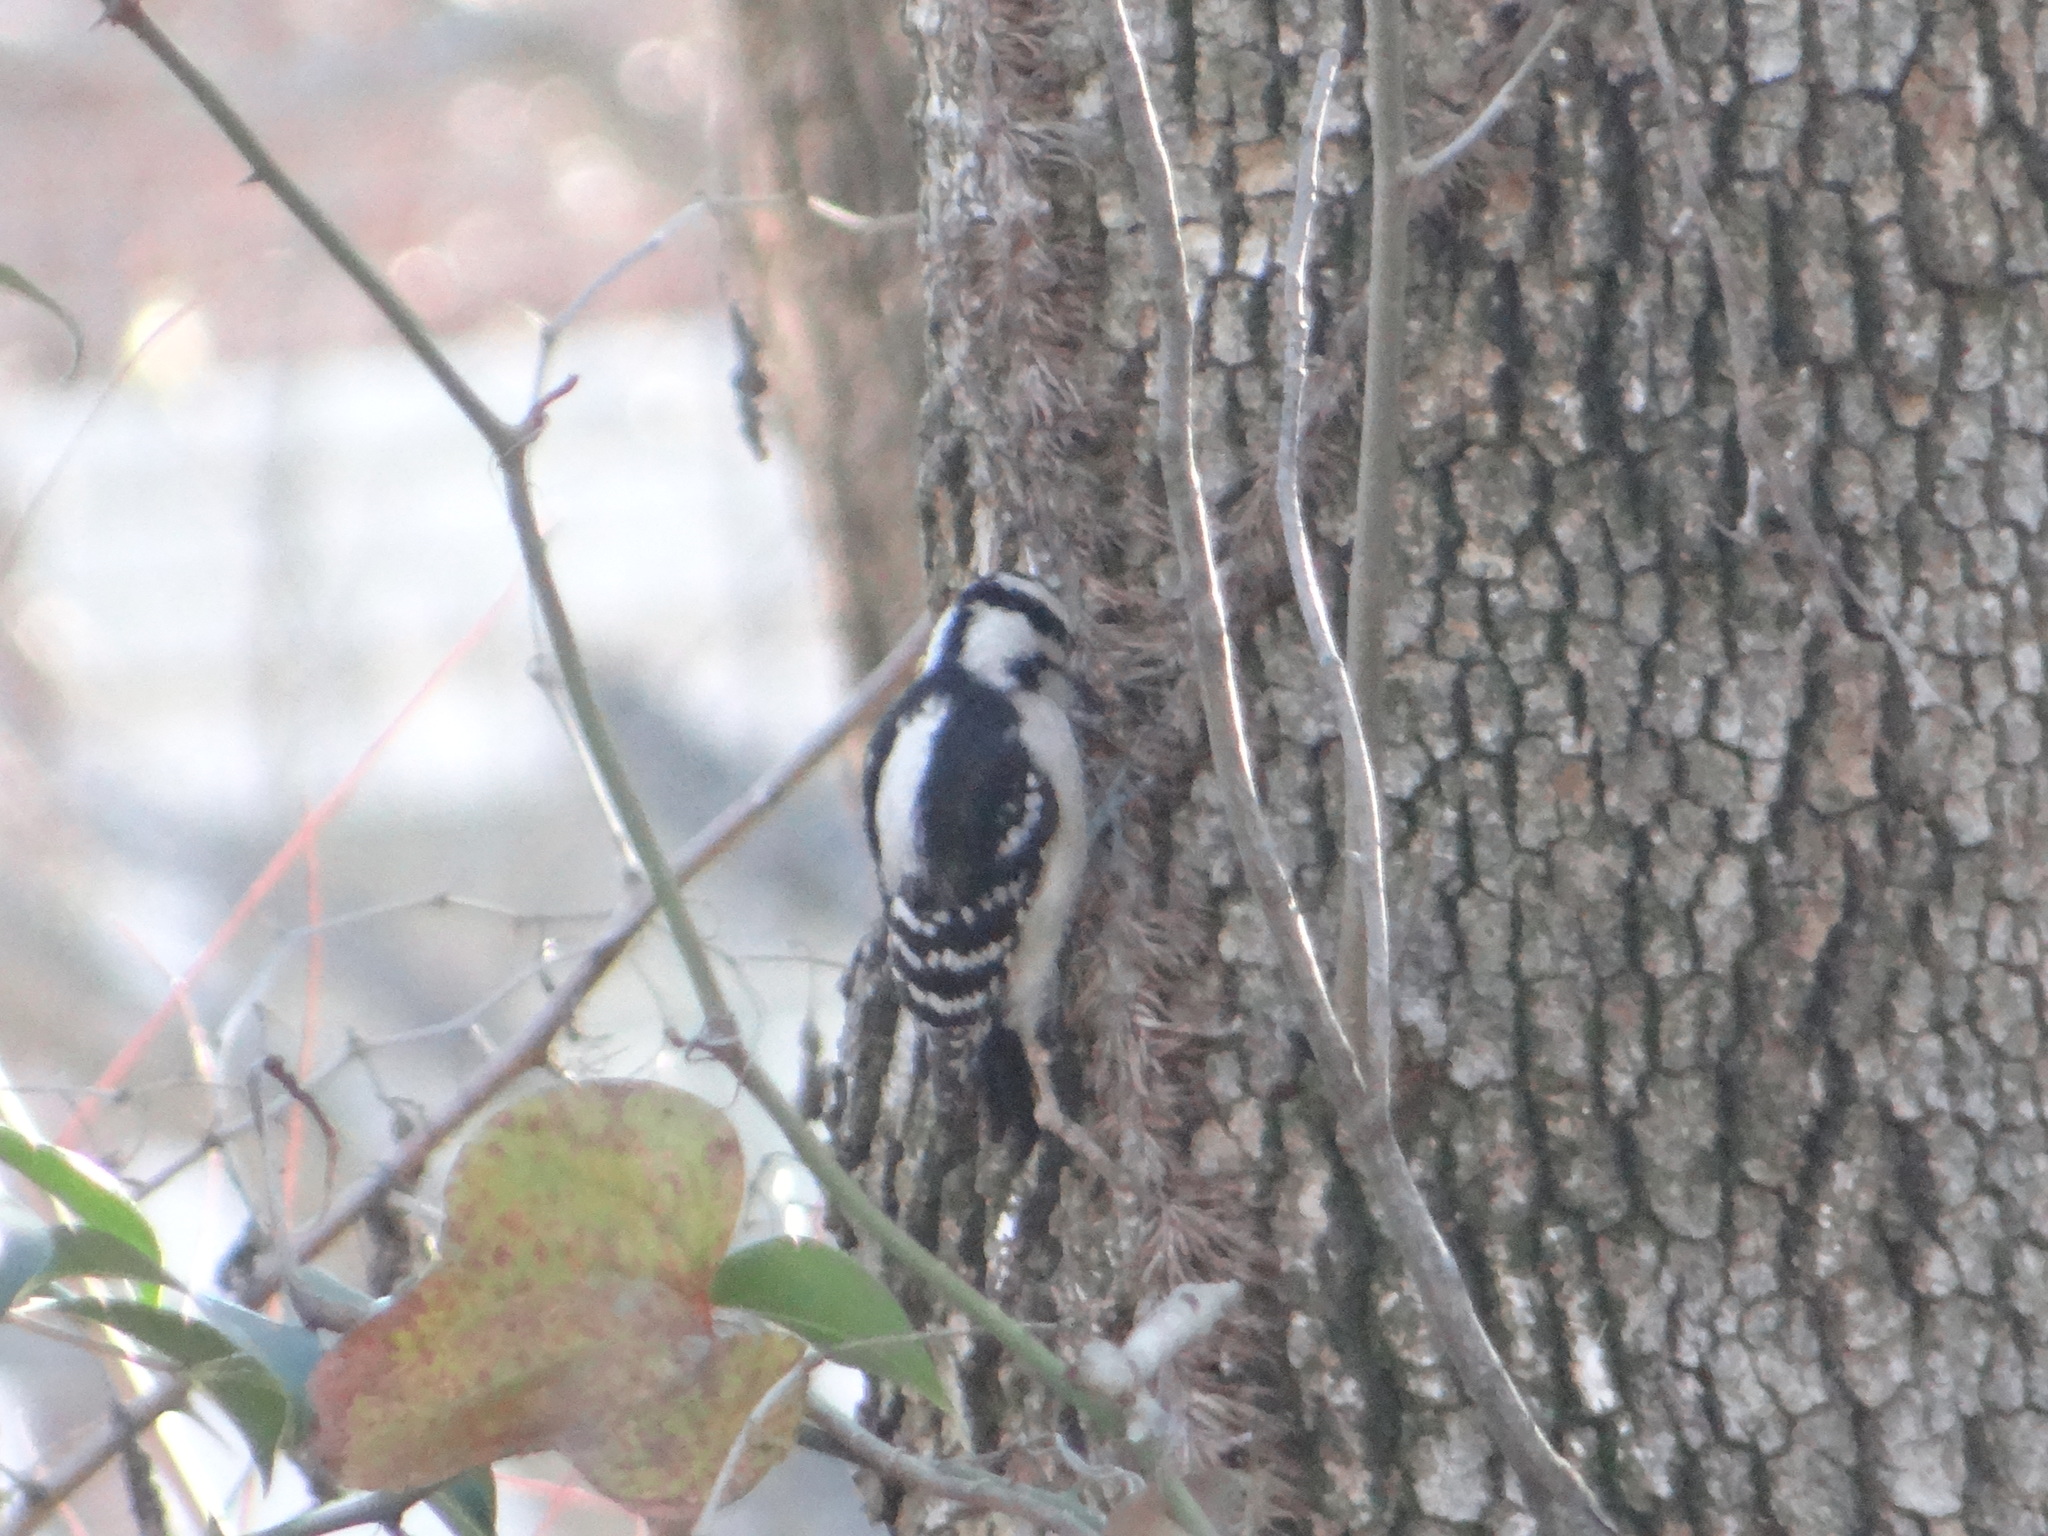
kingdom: Animalia
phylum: Chordata
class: Aves
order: Piciformes
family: Picidae
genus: Dryobates
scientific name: Dryobates pubescens
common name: Downy woodpecker
